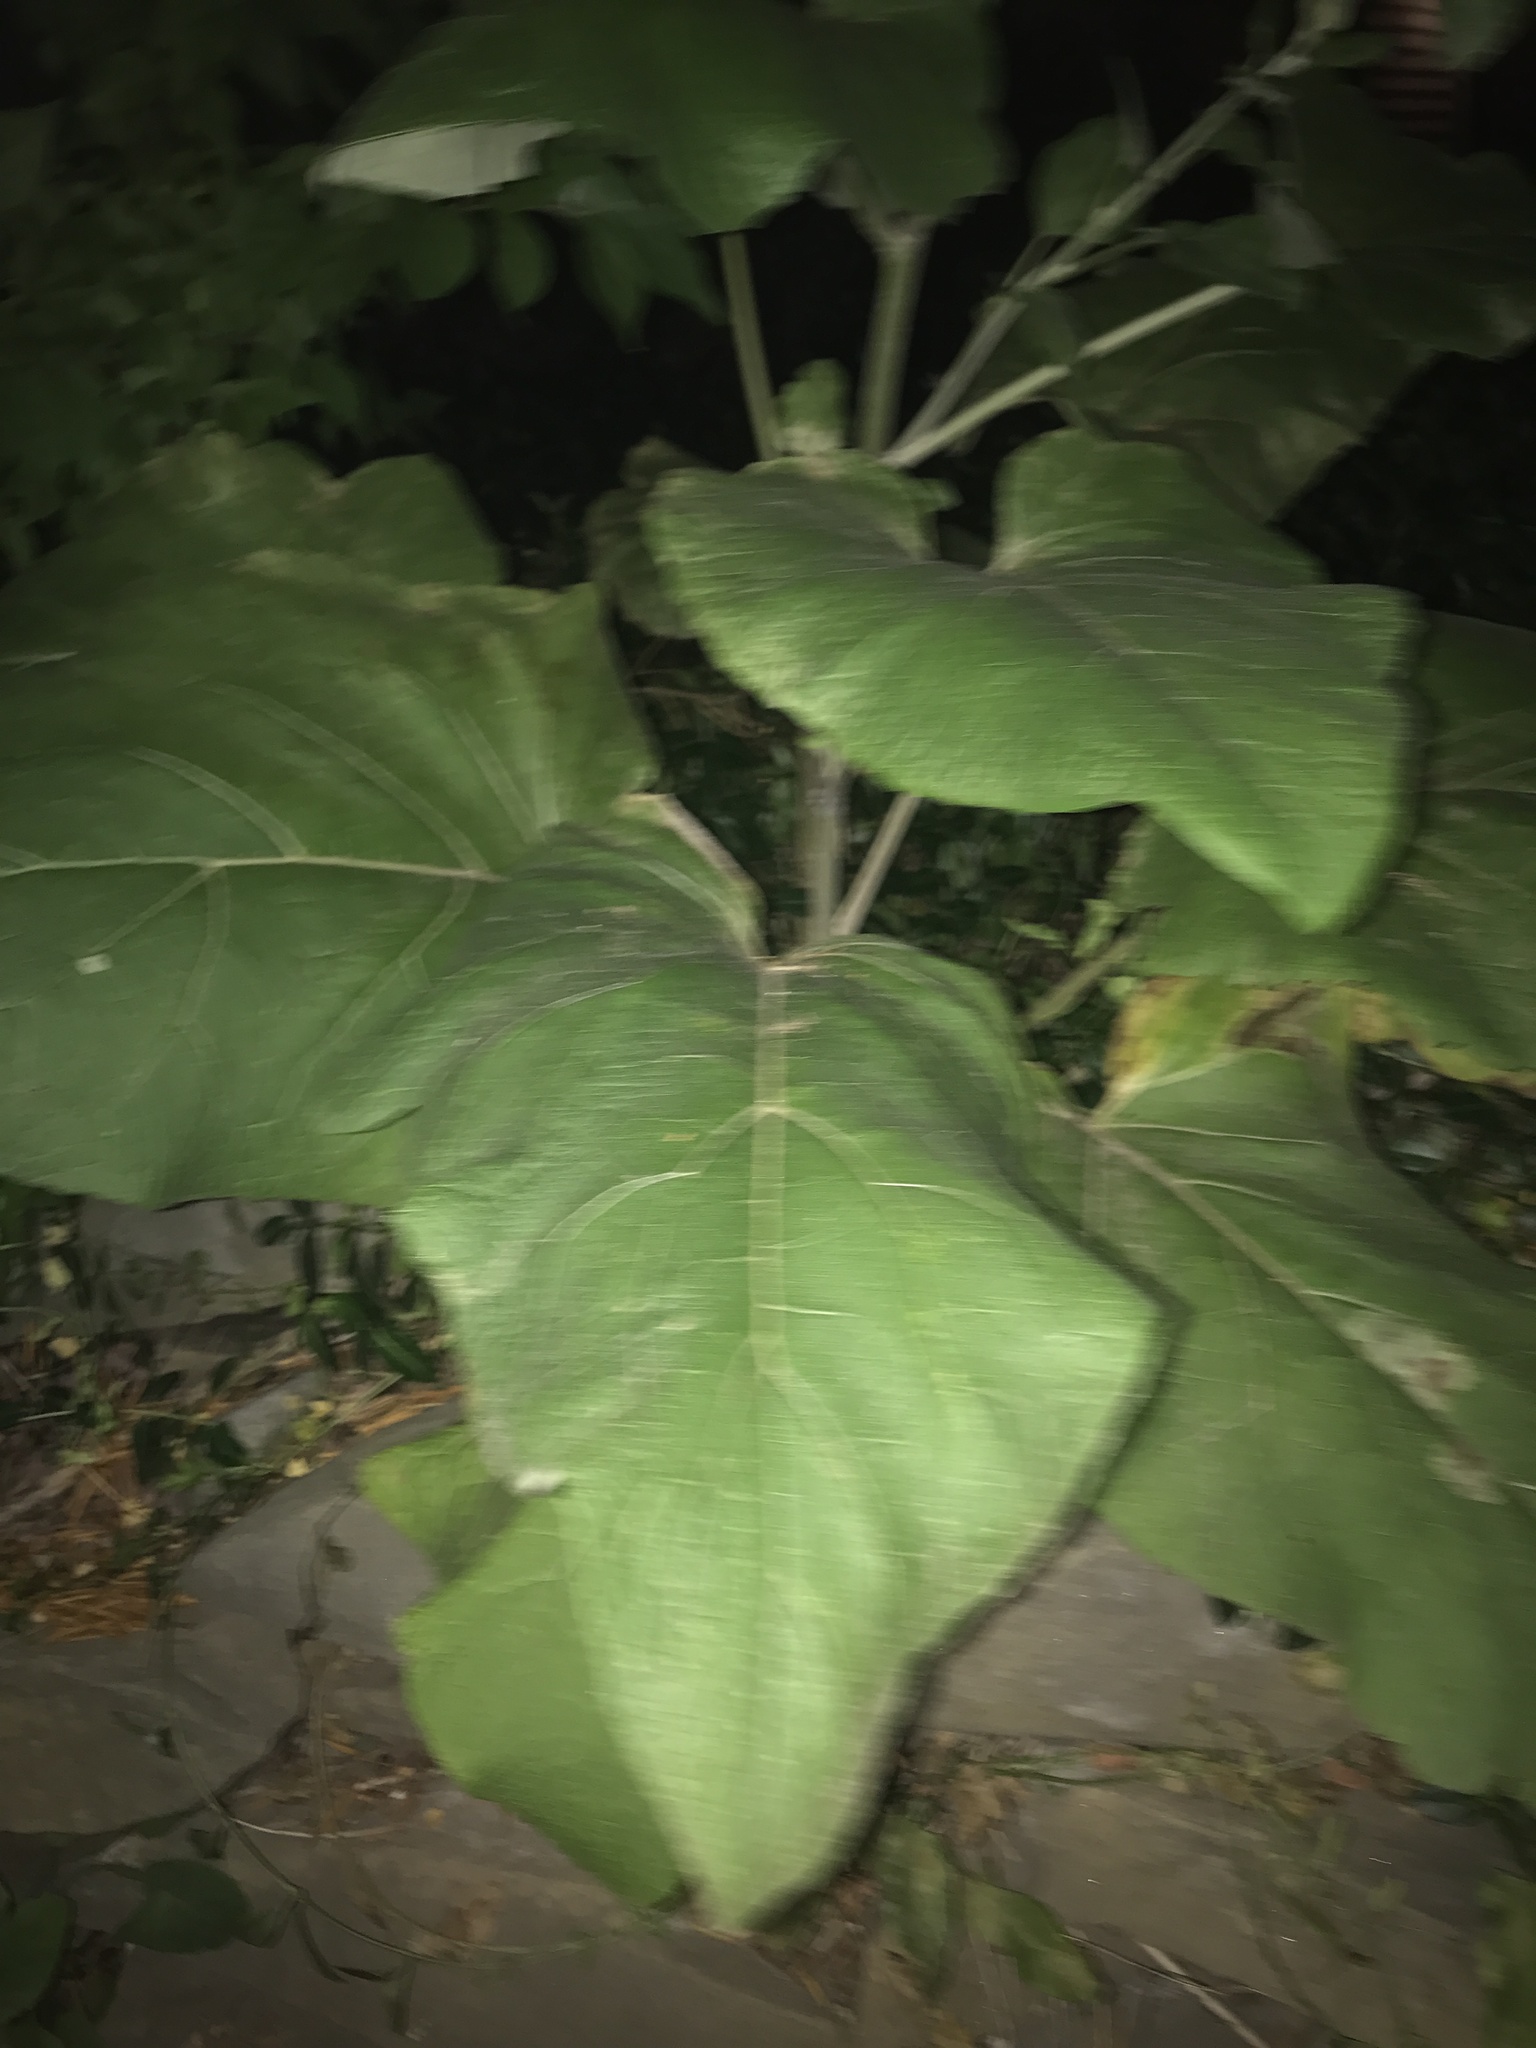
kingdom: Plantae
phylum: Tracheophyta
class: Magnoliopsida
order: Asterales
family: Asteraceae
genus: Arctium
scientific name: Arctium
